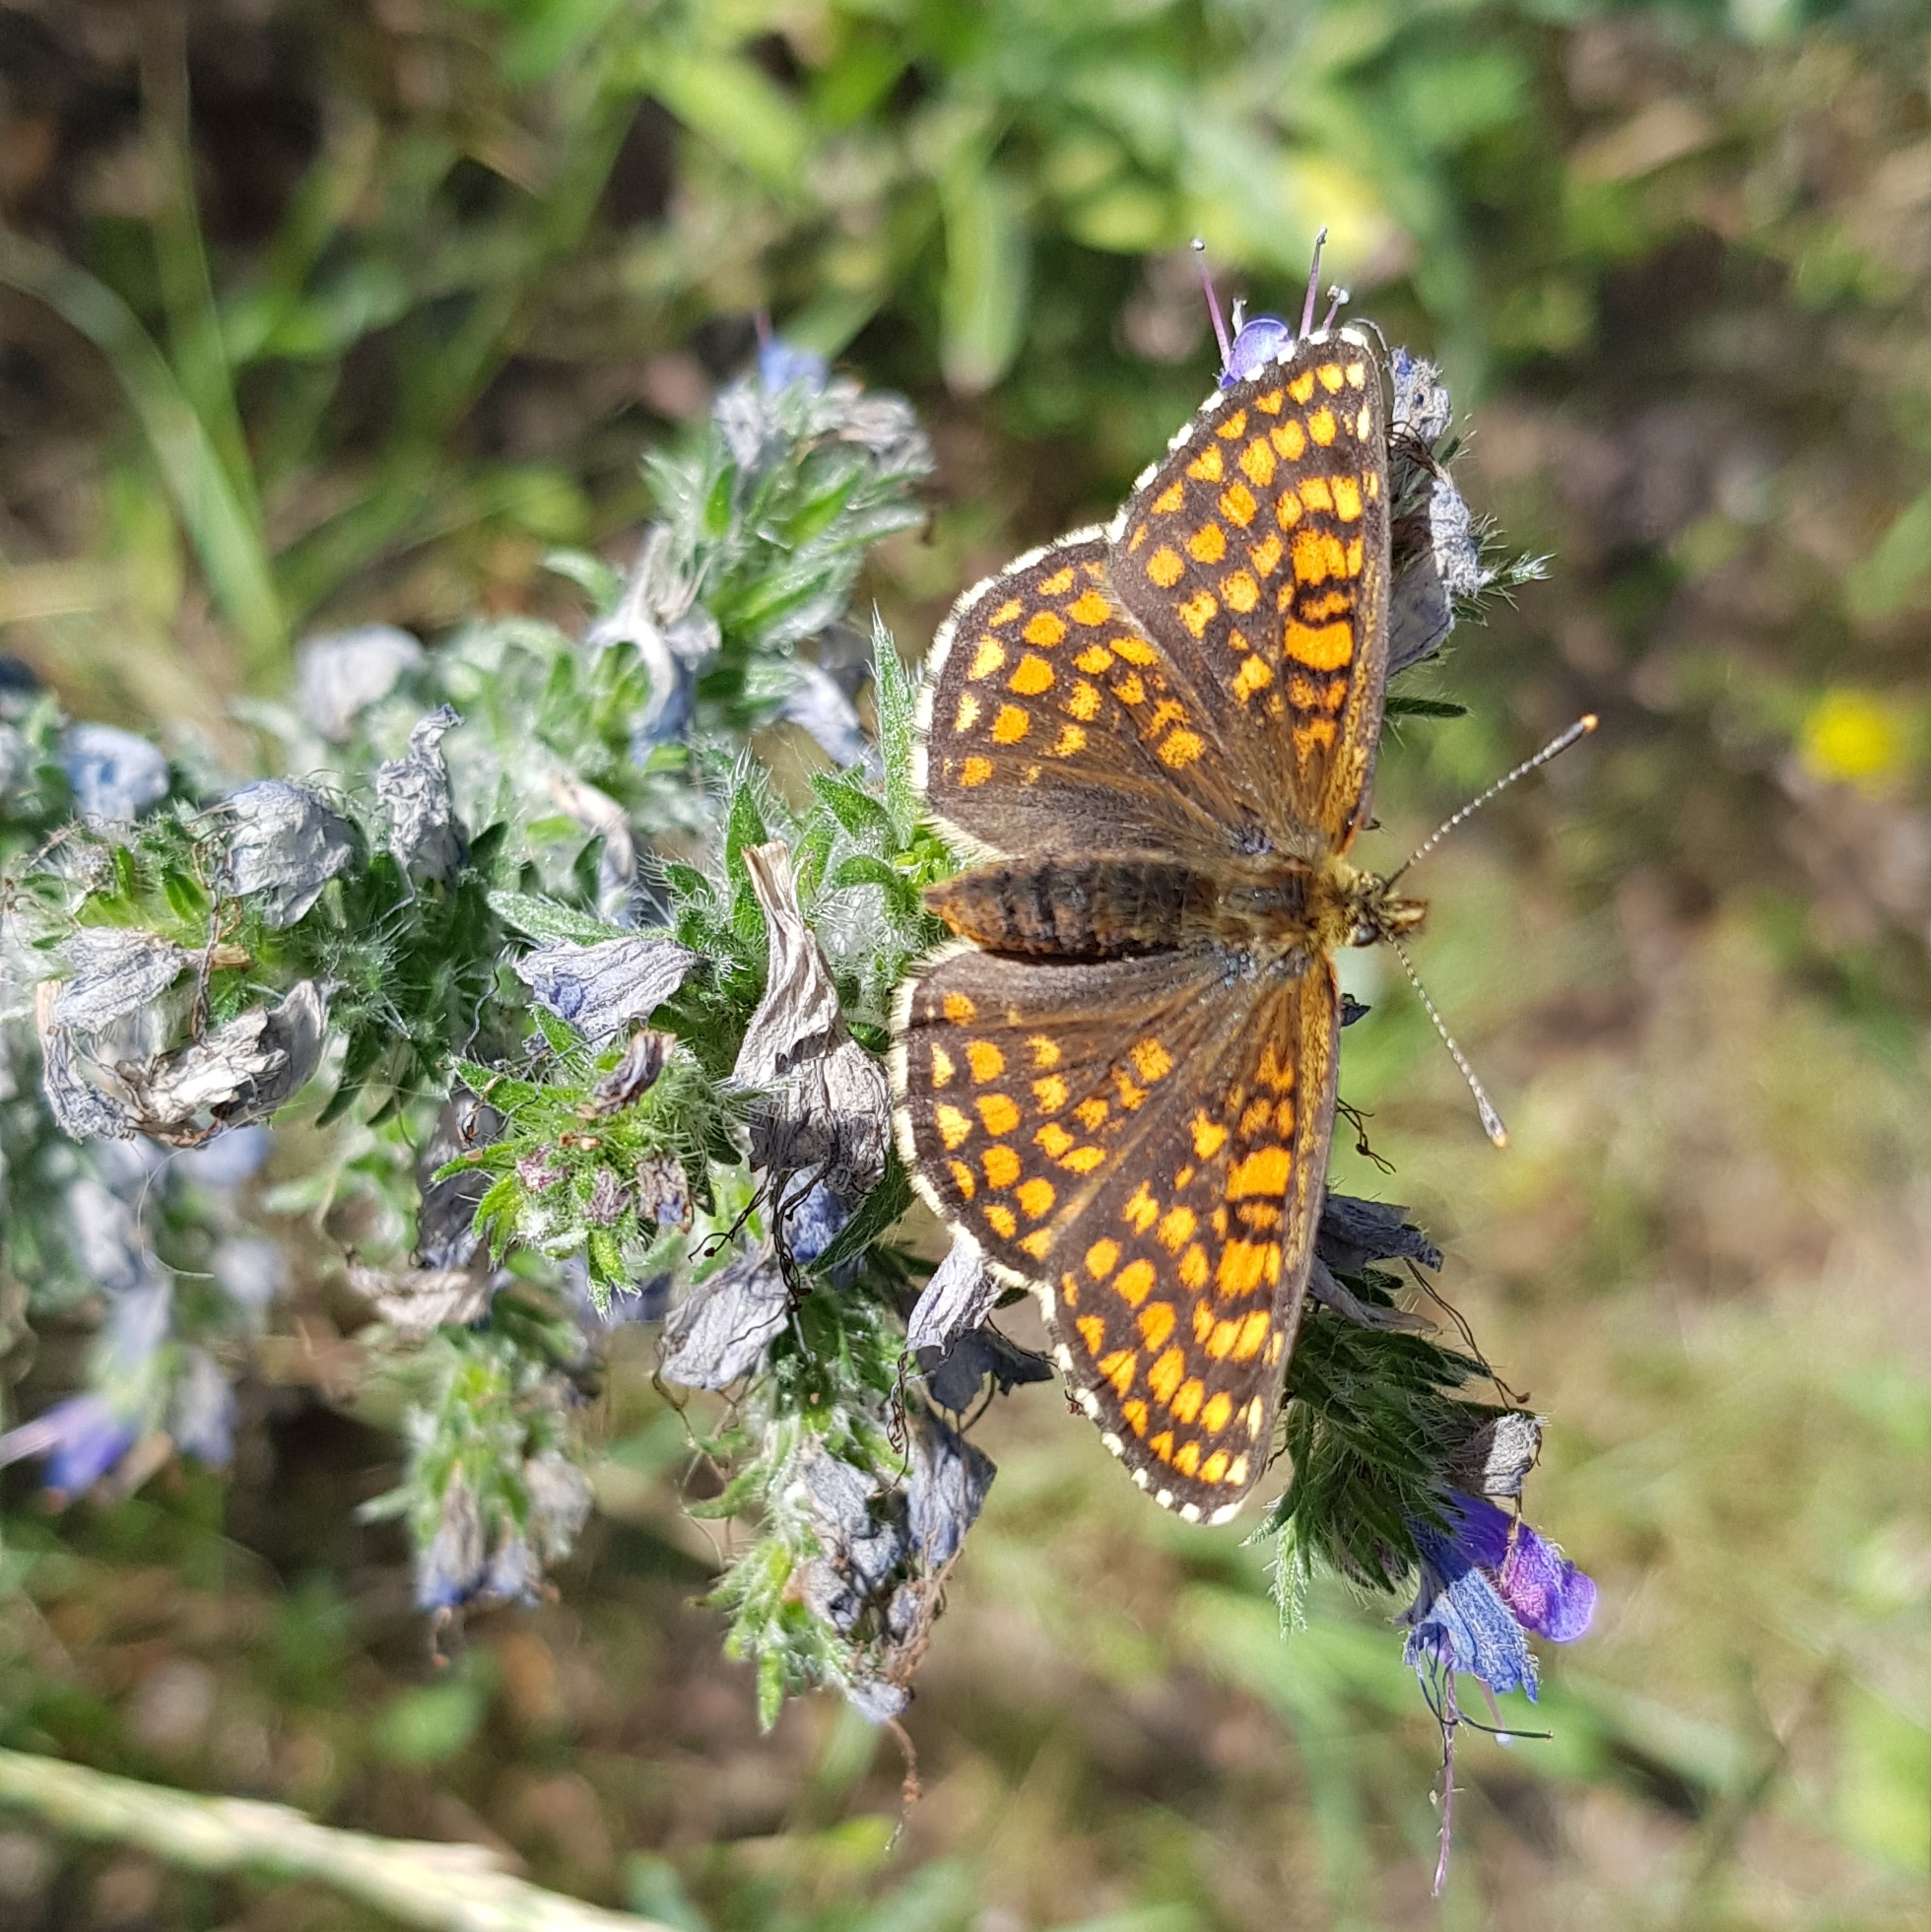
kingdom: Animalia
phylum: Arthropoda
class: Insecta
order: Lepidoptera
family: Nymphalidae
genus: Melitaea
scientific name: Melitaea athalia
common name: Heath fritillary
